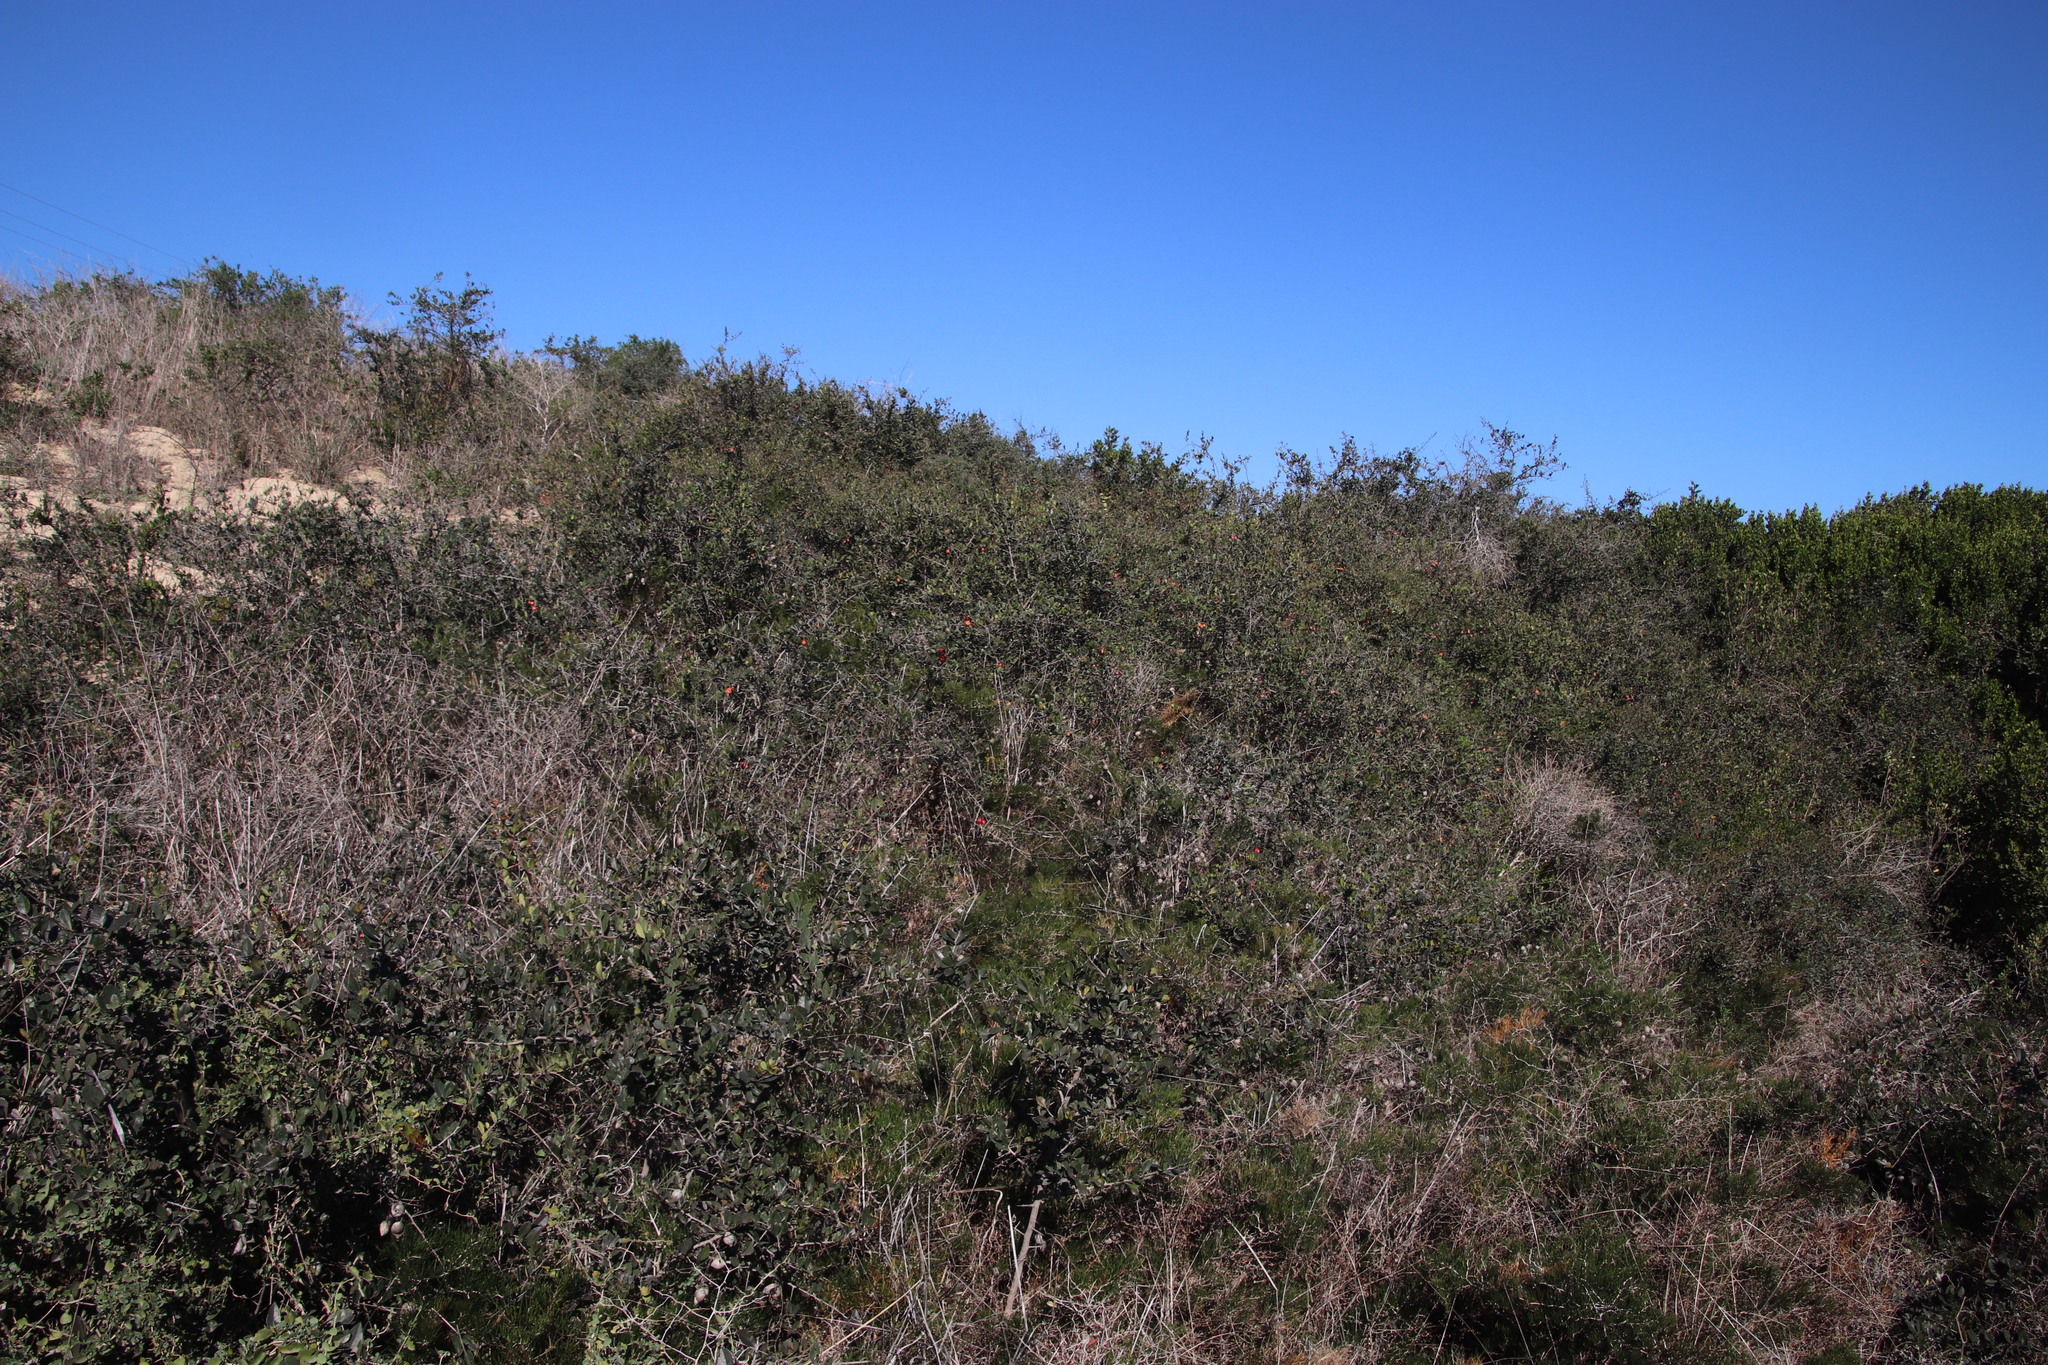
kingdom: Plantae
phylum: Tracheophyta
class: Magnoliopsida
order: Celastrales
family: Celastraceae
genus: Putterlickia
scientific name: Putterlickia pyracantha
